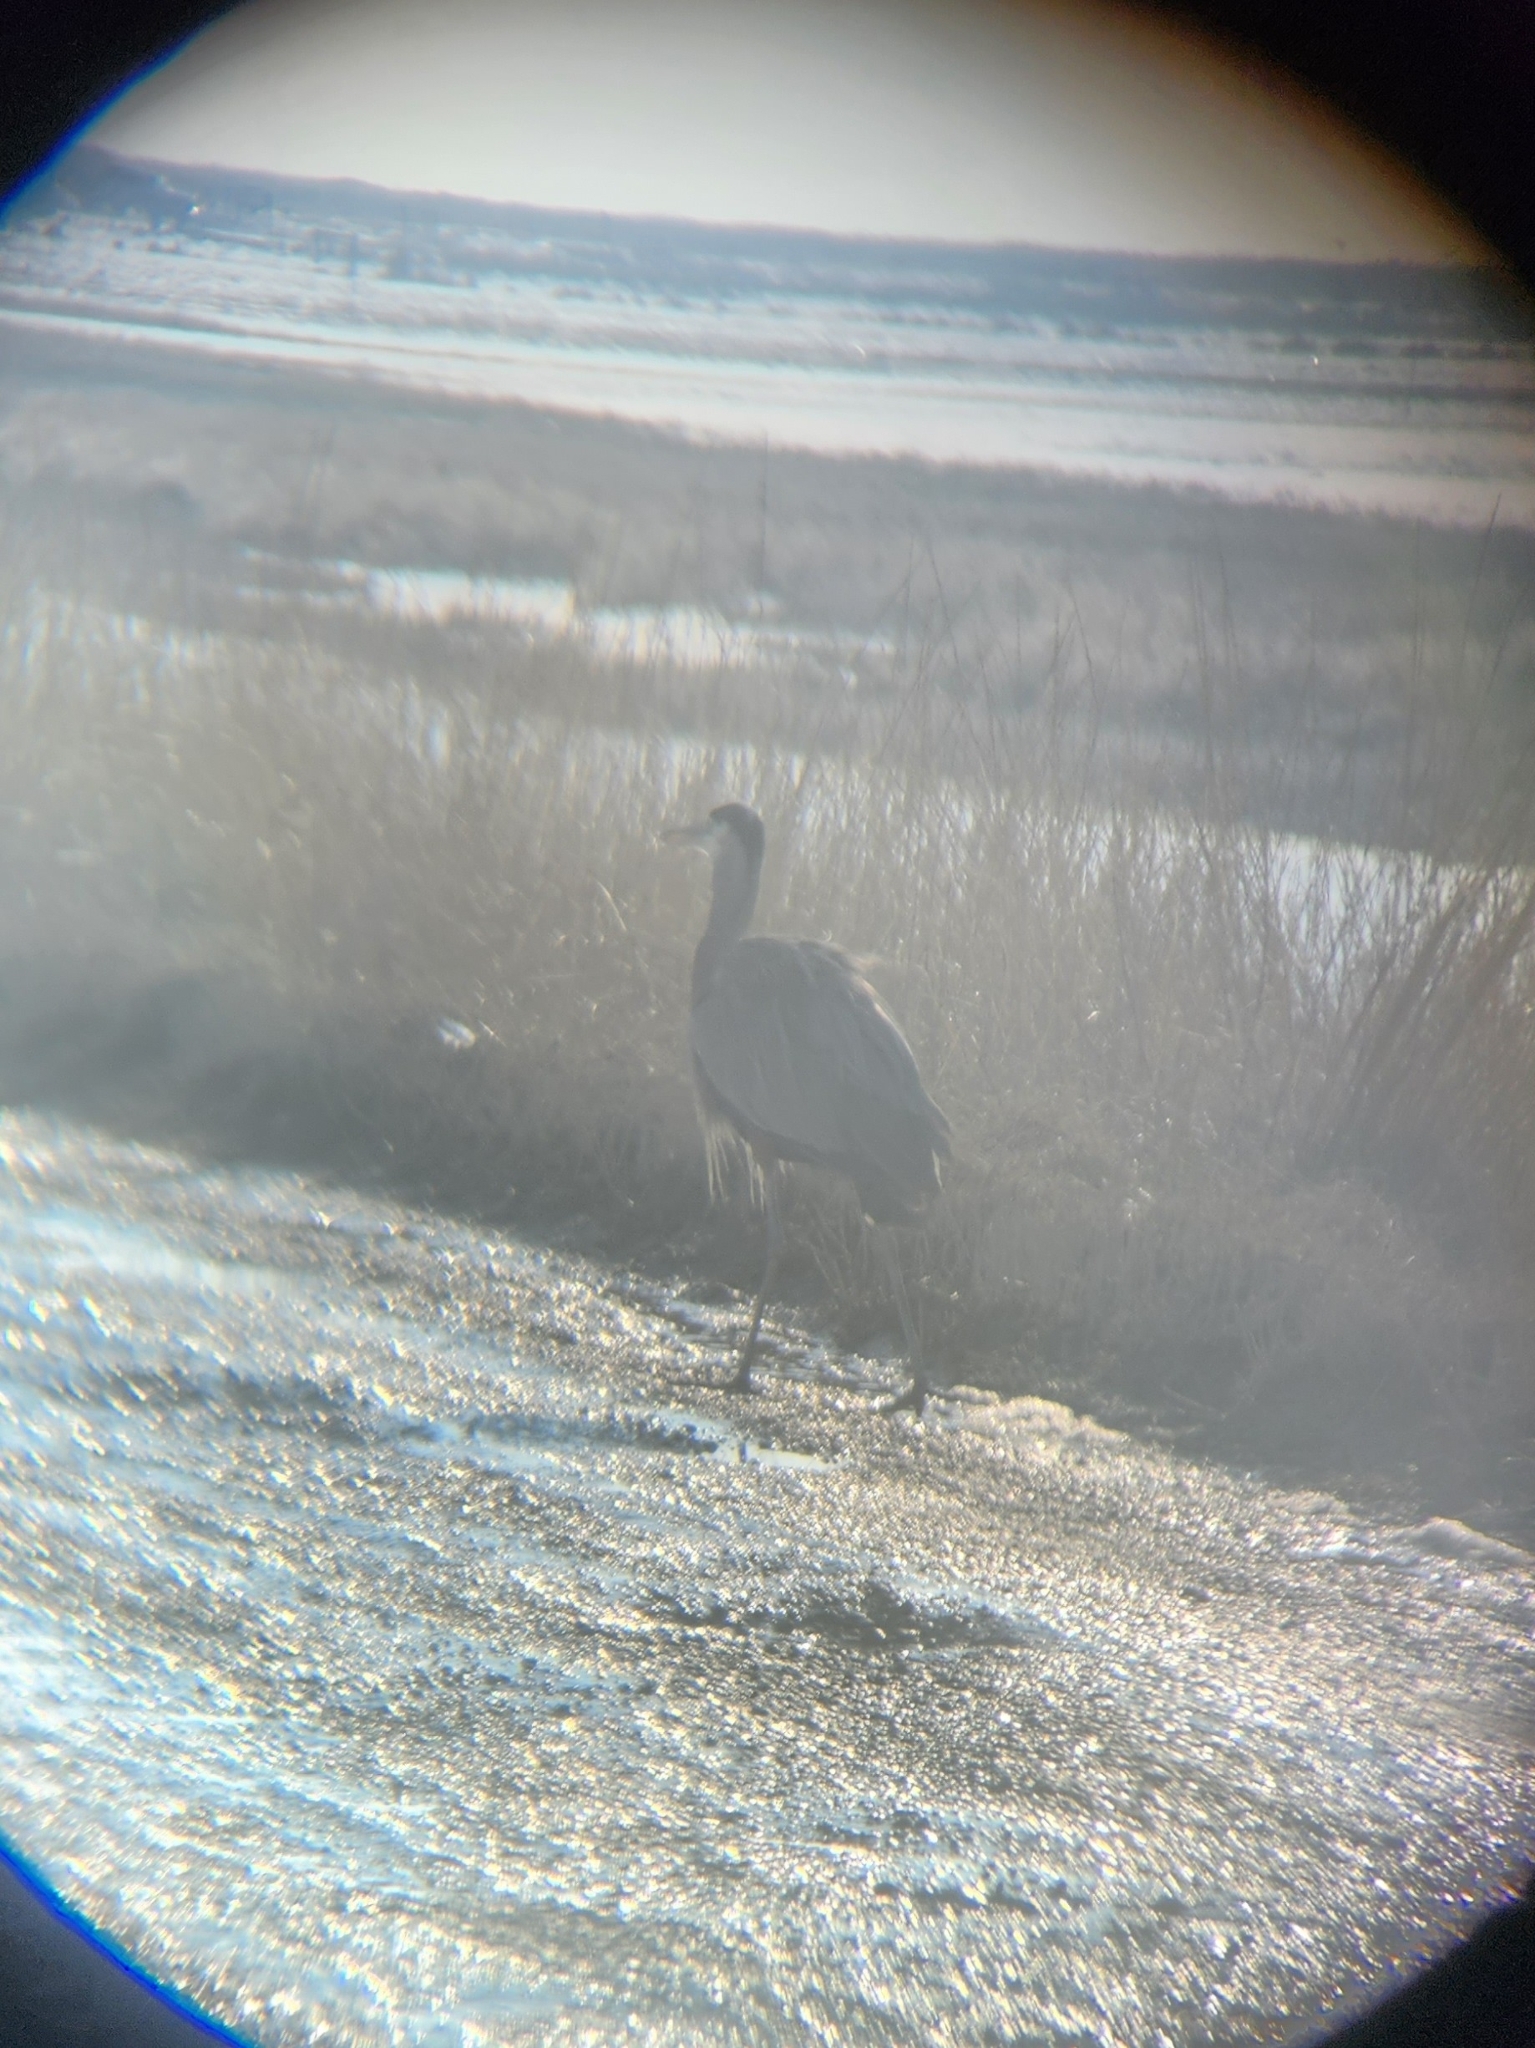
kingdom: Animalia
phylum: Chordata
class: Aves
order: Pelecaniformes
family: Ardeidae
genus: Ardea
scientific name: Ardea herodias
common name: Great blue heron
